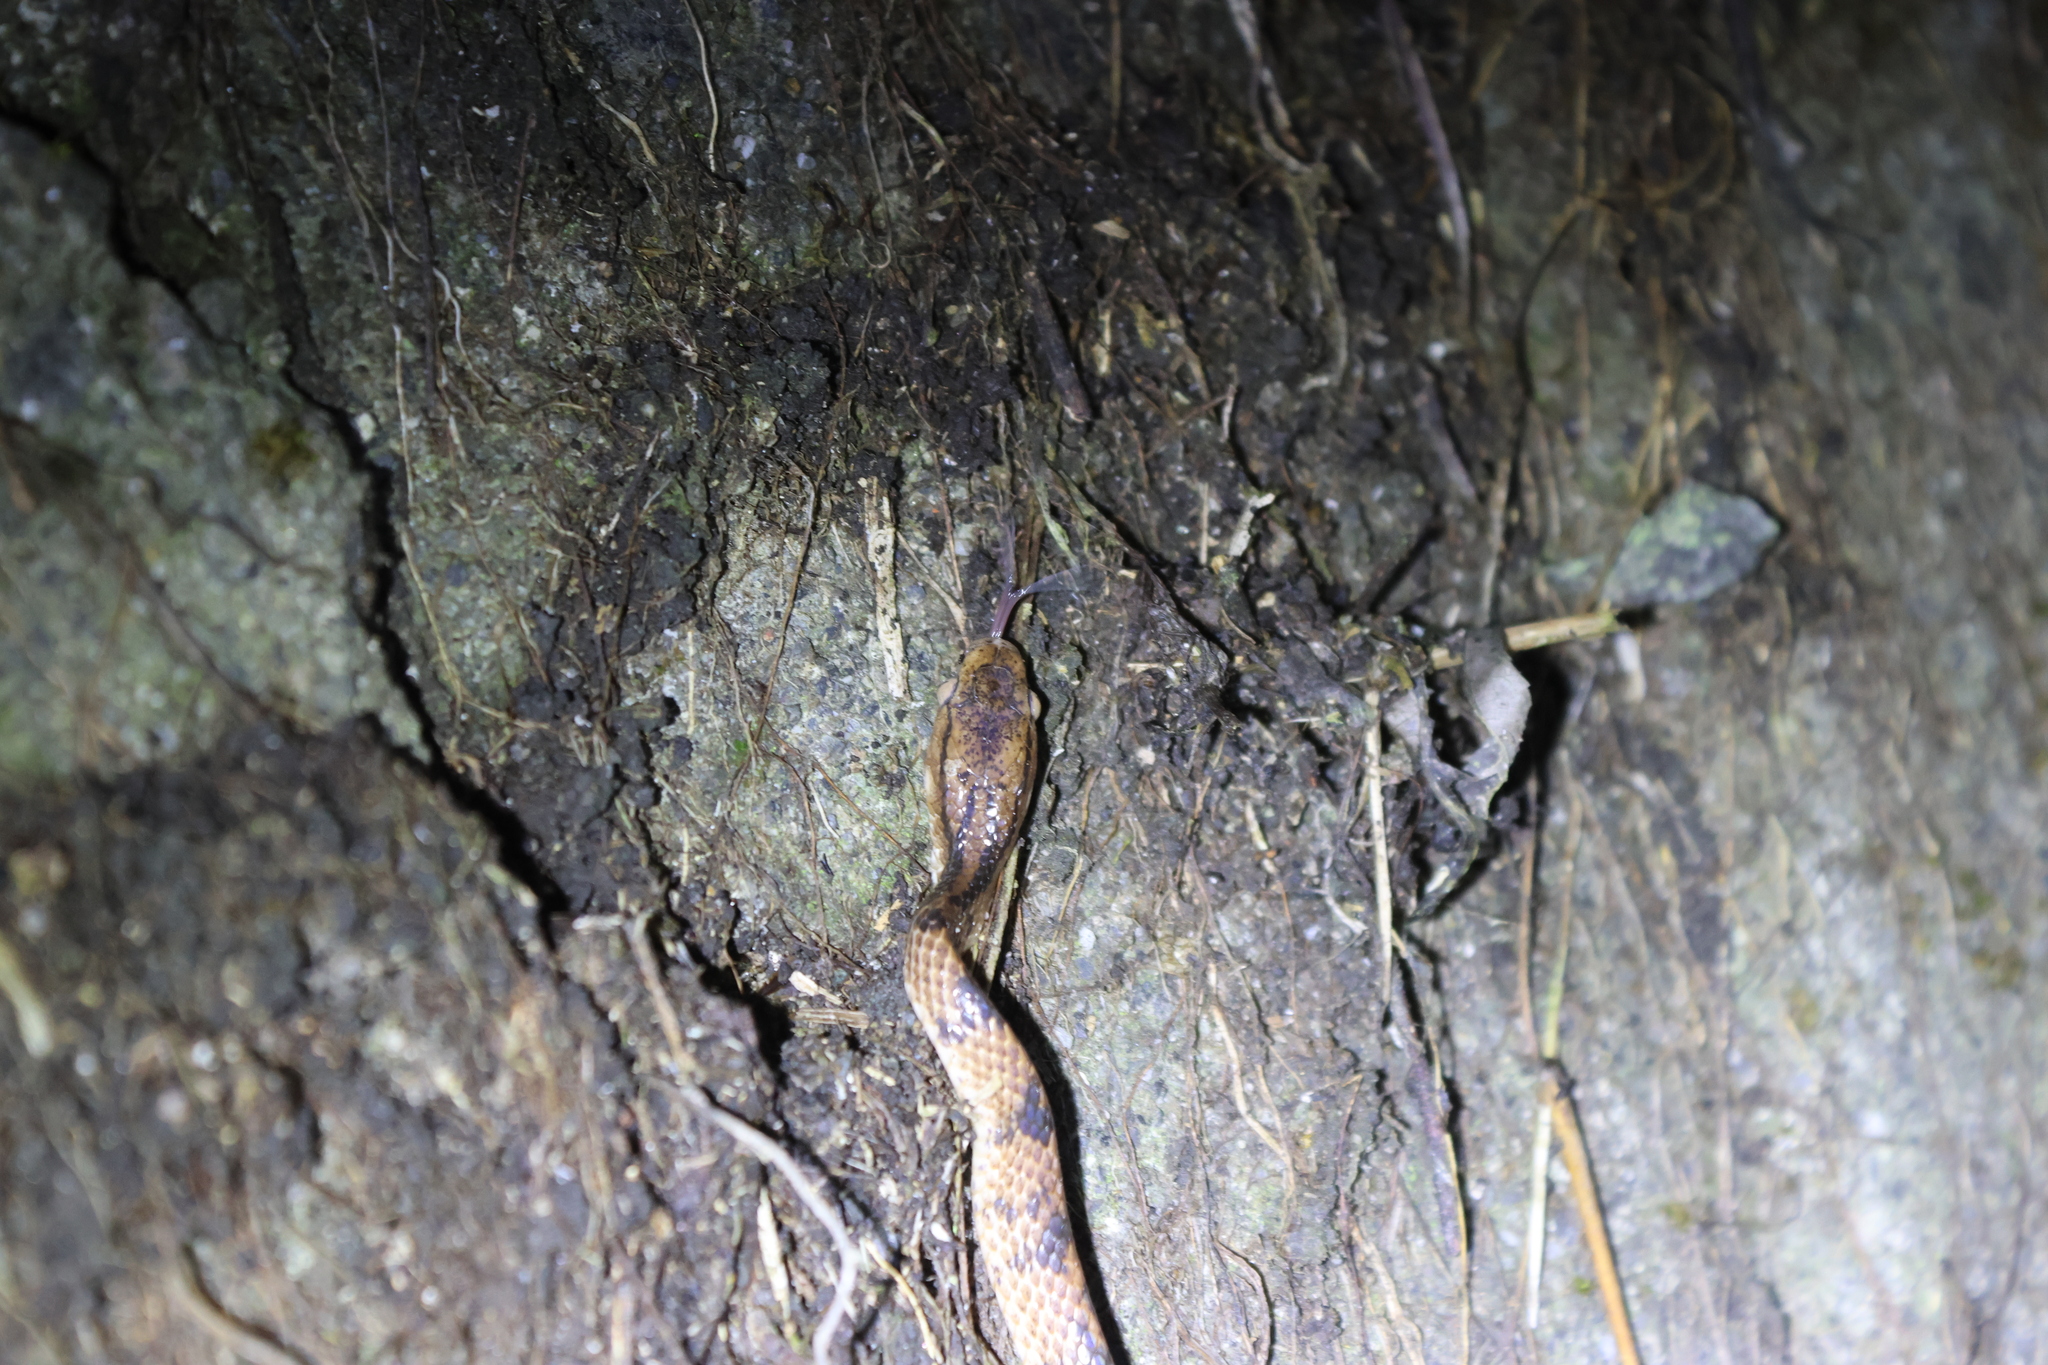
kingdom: Animalia
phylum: Chordata
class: Squamata
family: Pareidae
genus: Pareas
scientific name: Pareas komaii
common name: Formosa slug snake
